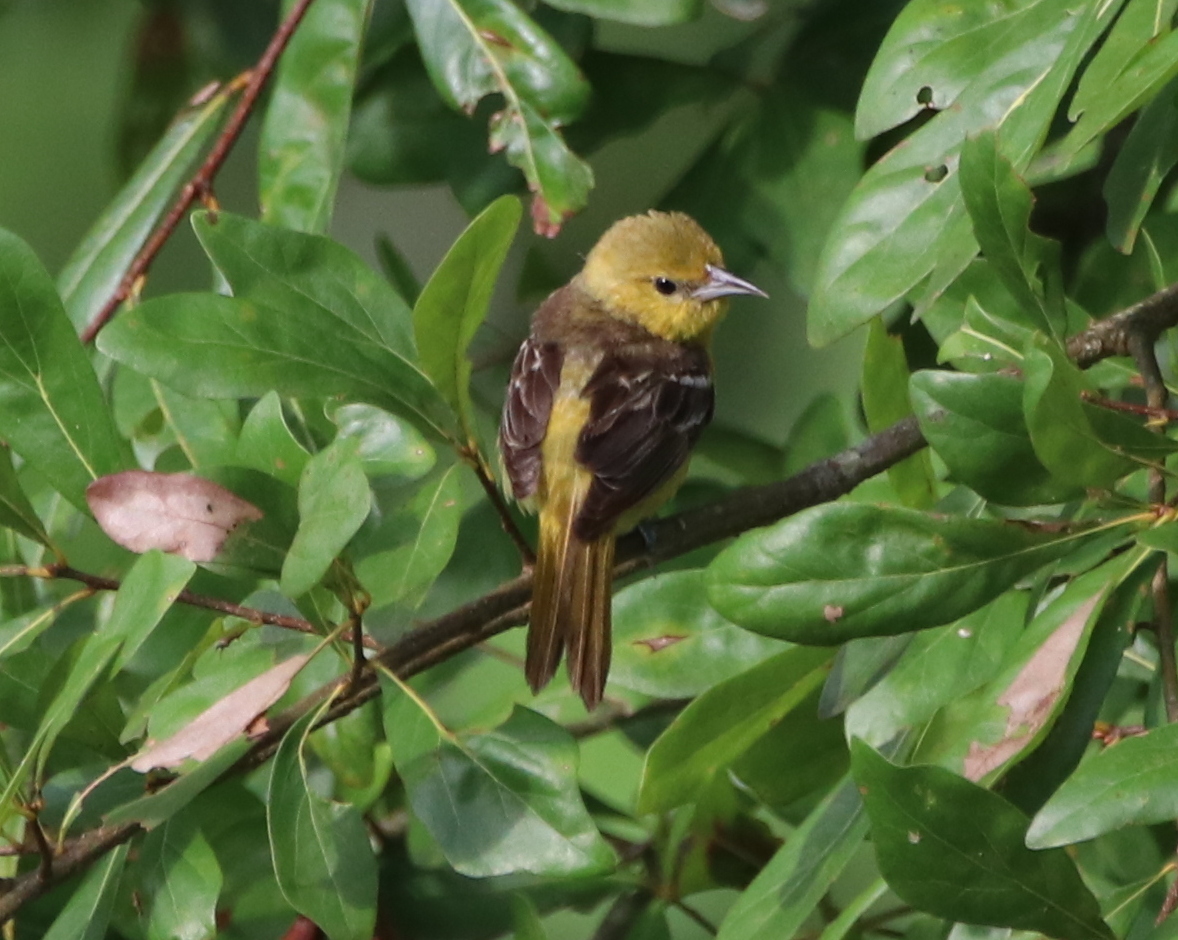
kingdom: Animalia
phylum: Chordata
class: Aves
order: Passeriformes
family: Icteridae
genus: Icterus
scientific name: Icterus spurius
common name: Orchard oriole
